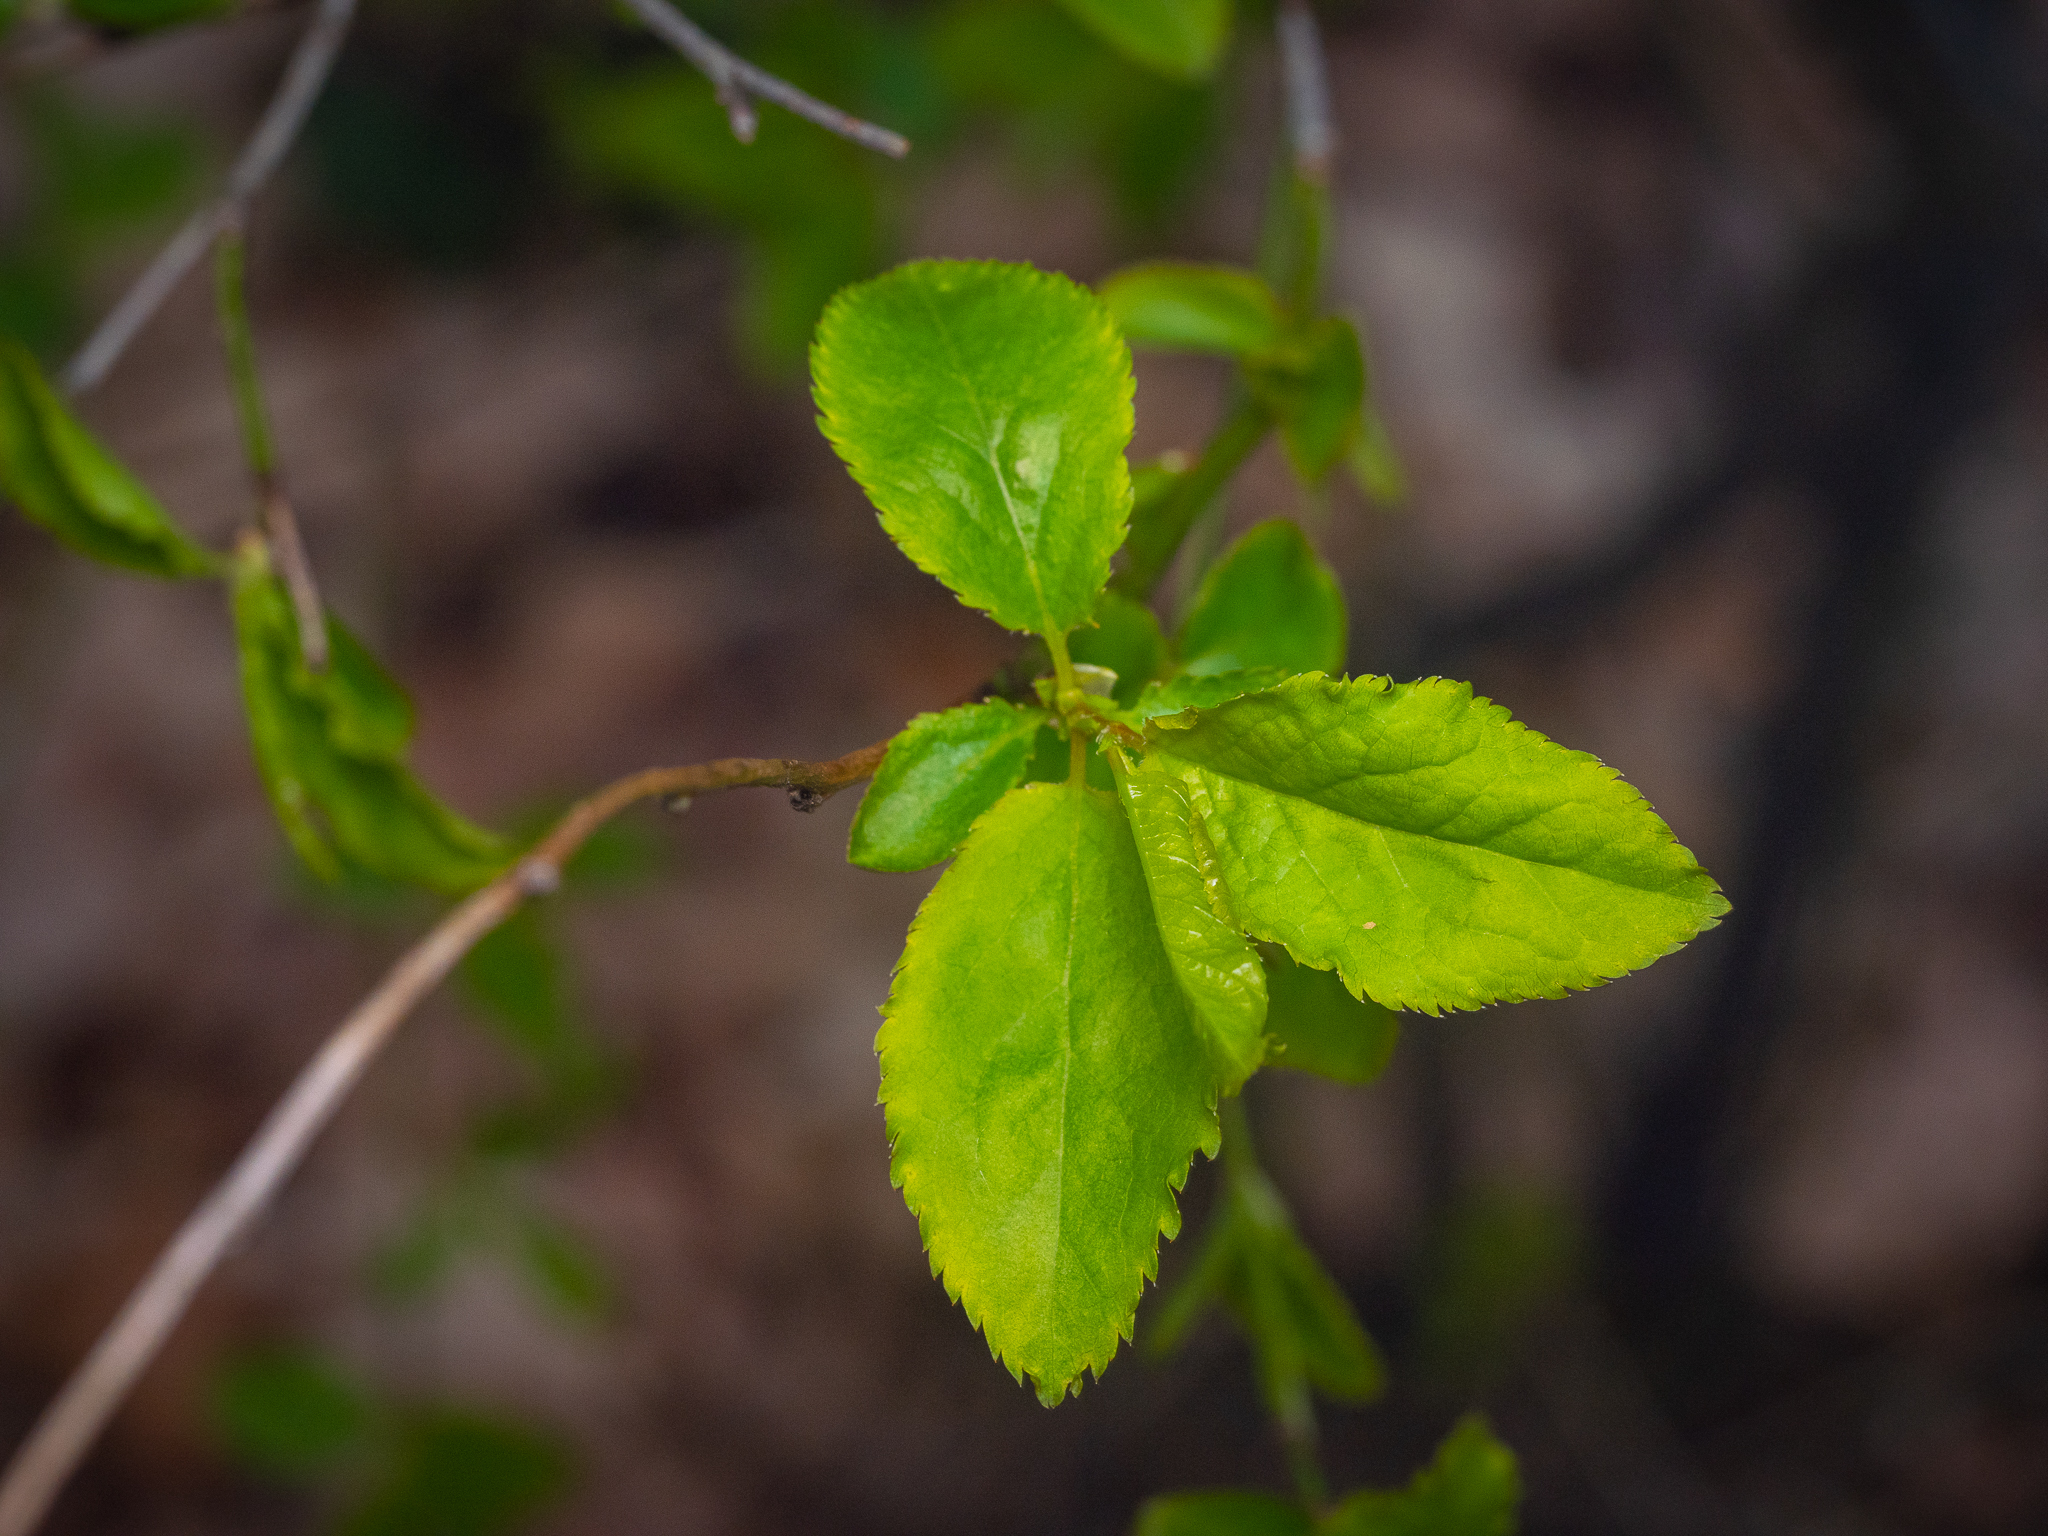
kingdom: Plantae
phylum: Tracheophyta
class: Magnoliopsida
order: Rosales
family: Rosaceae
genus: Prunus
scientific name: Prunus cerasifera
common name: Cherry plum
